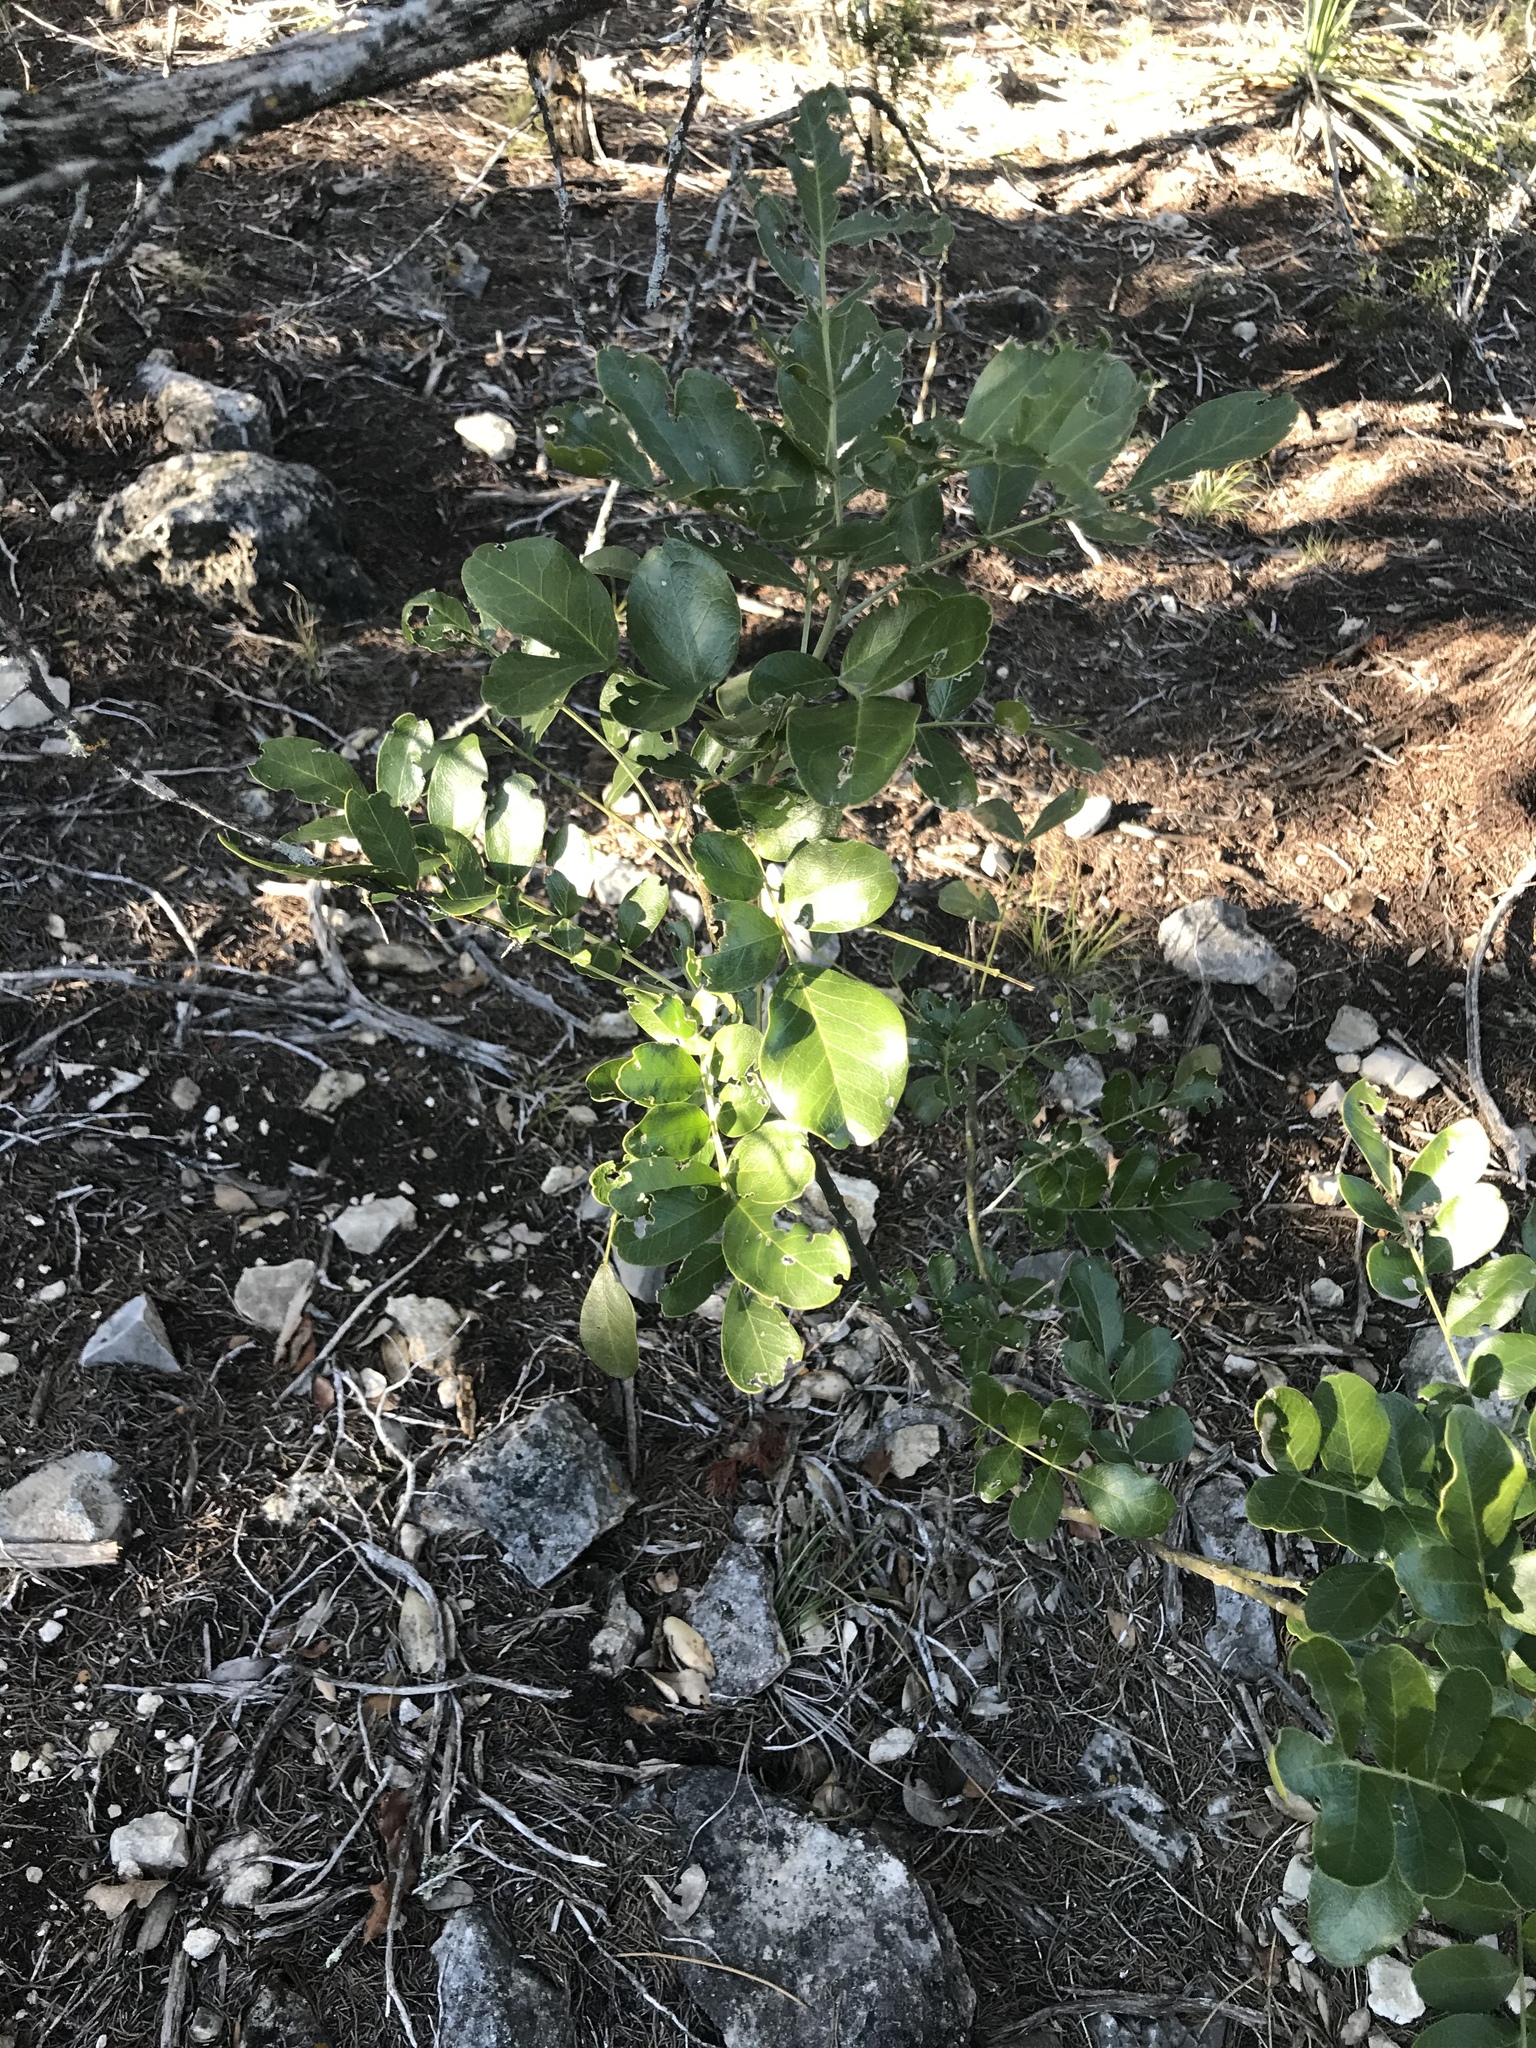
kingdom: Plantae
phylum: Tracheophyta
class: Magnoliopsida
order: Fabales
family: Fabaceae
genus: Dermatophyllum
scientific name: Dermatophyllum secundiflorum
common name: Texas-mountain-laurel
